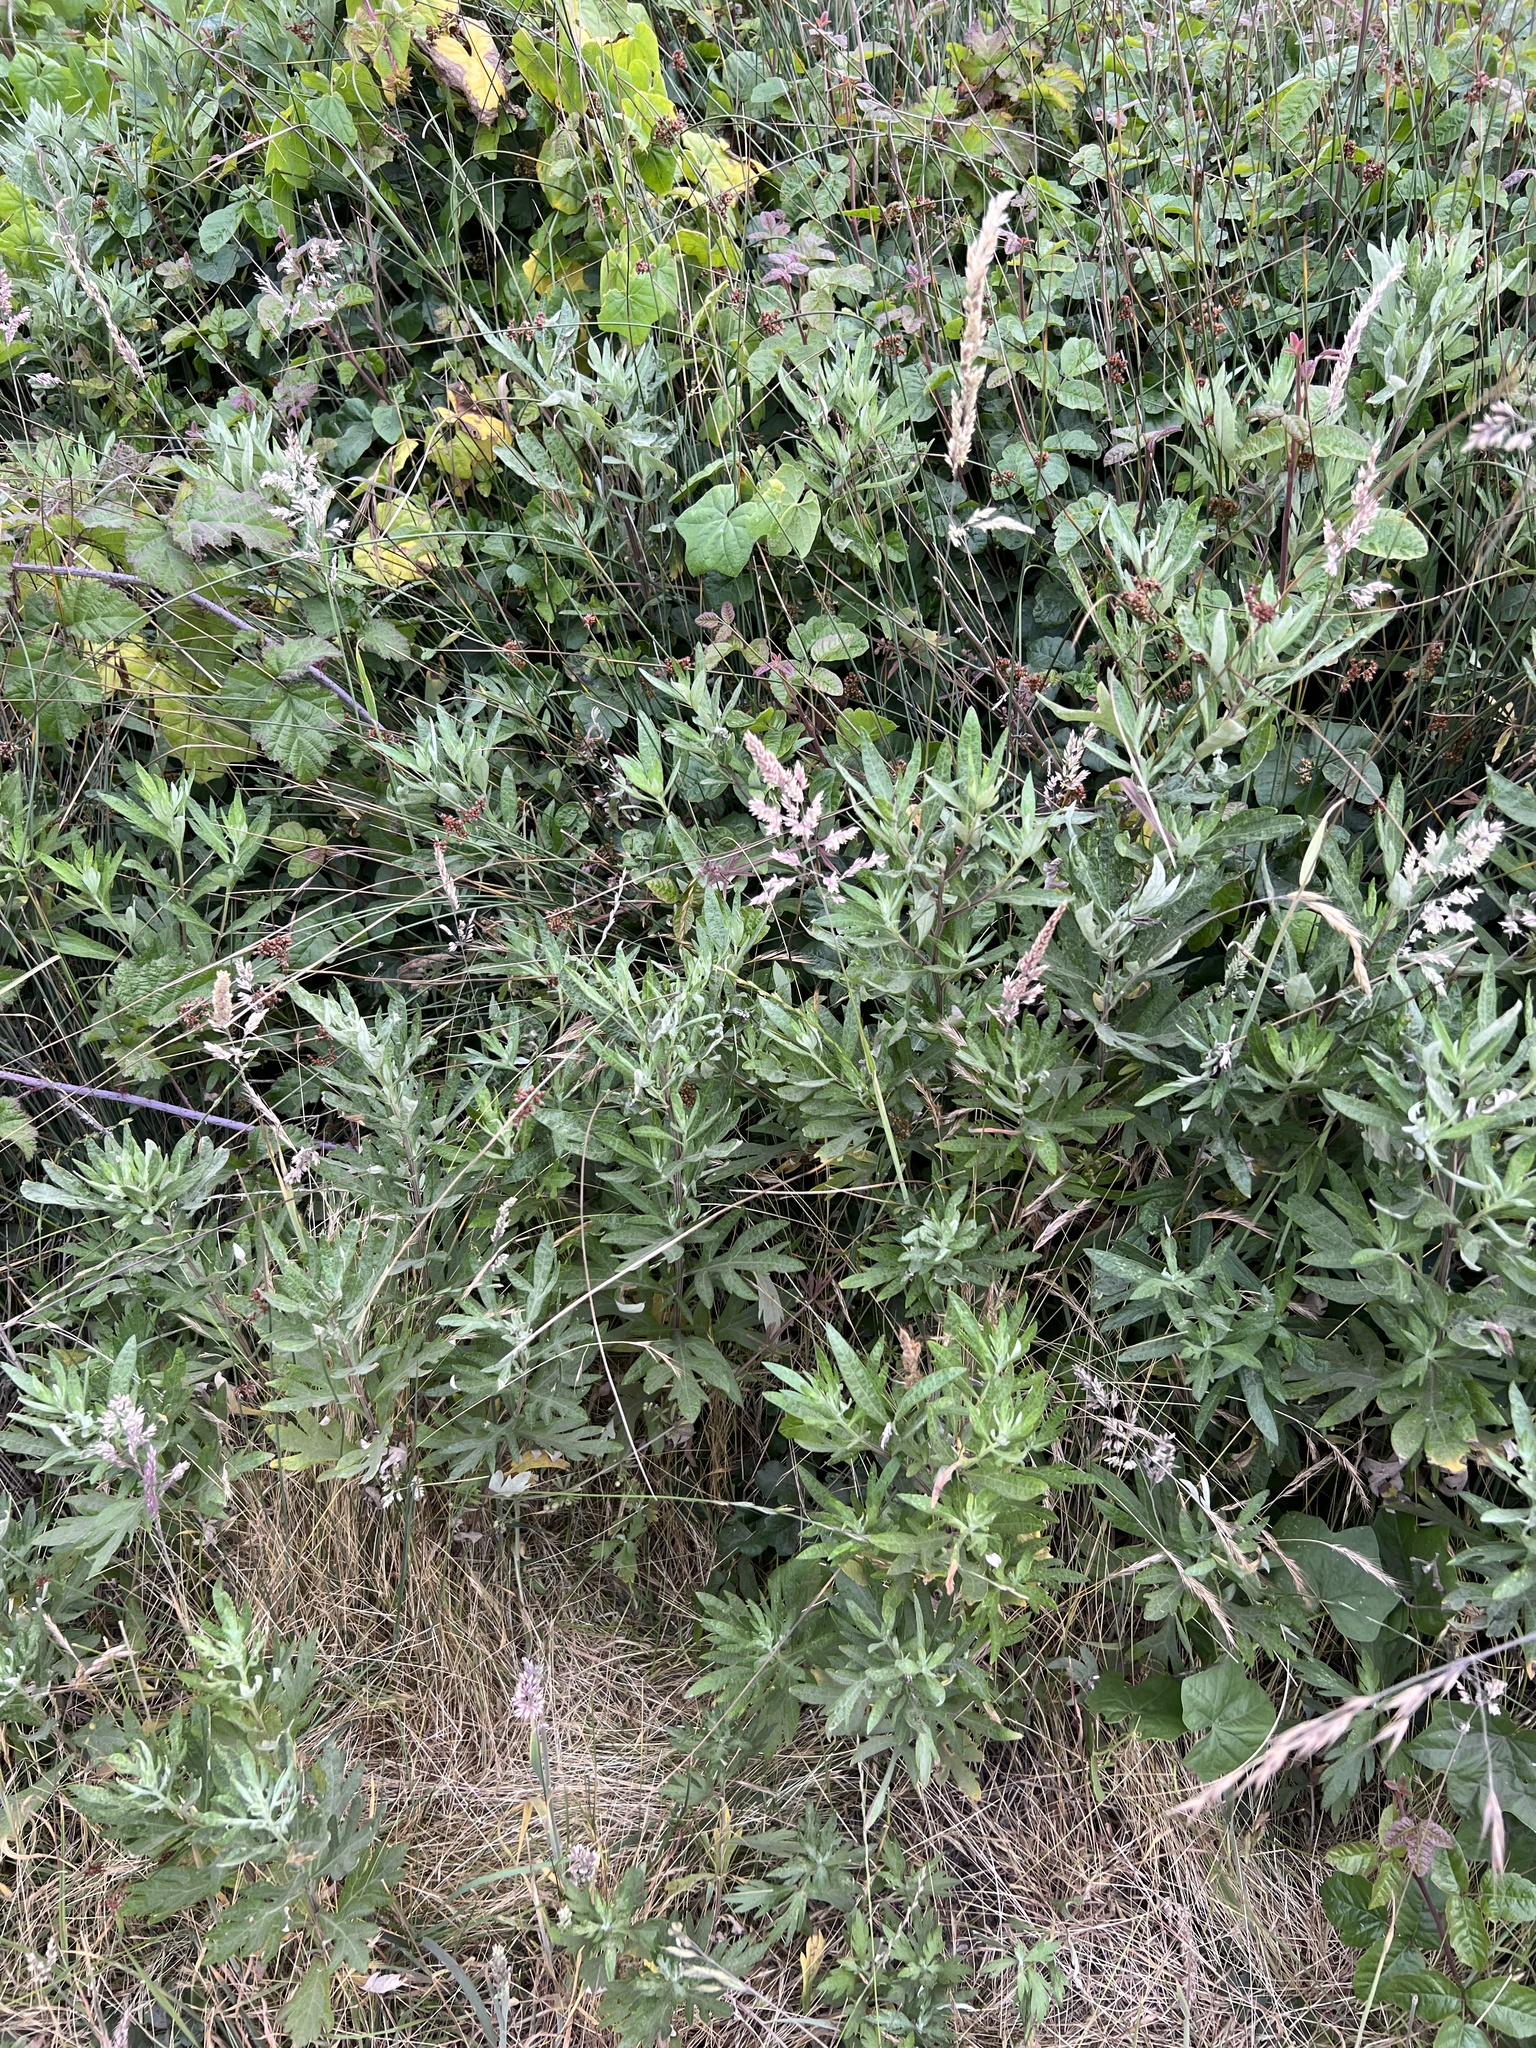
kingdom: Plantae
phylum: Tracheophyta
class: Magnoliopsida
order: Asterales
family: Asteraceae
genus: Artemisia
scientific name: Artemisia douglasiana
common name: Northwest mugwort
